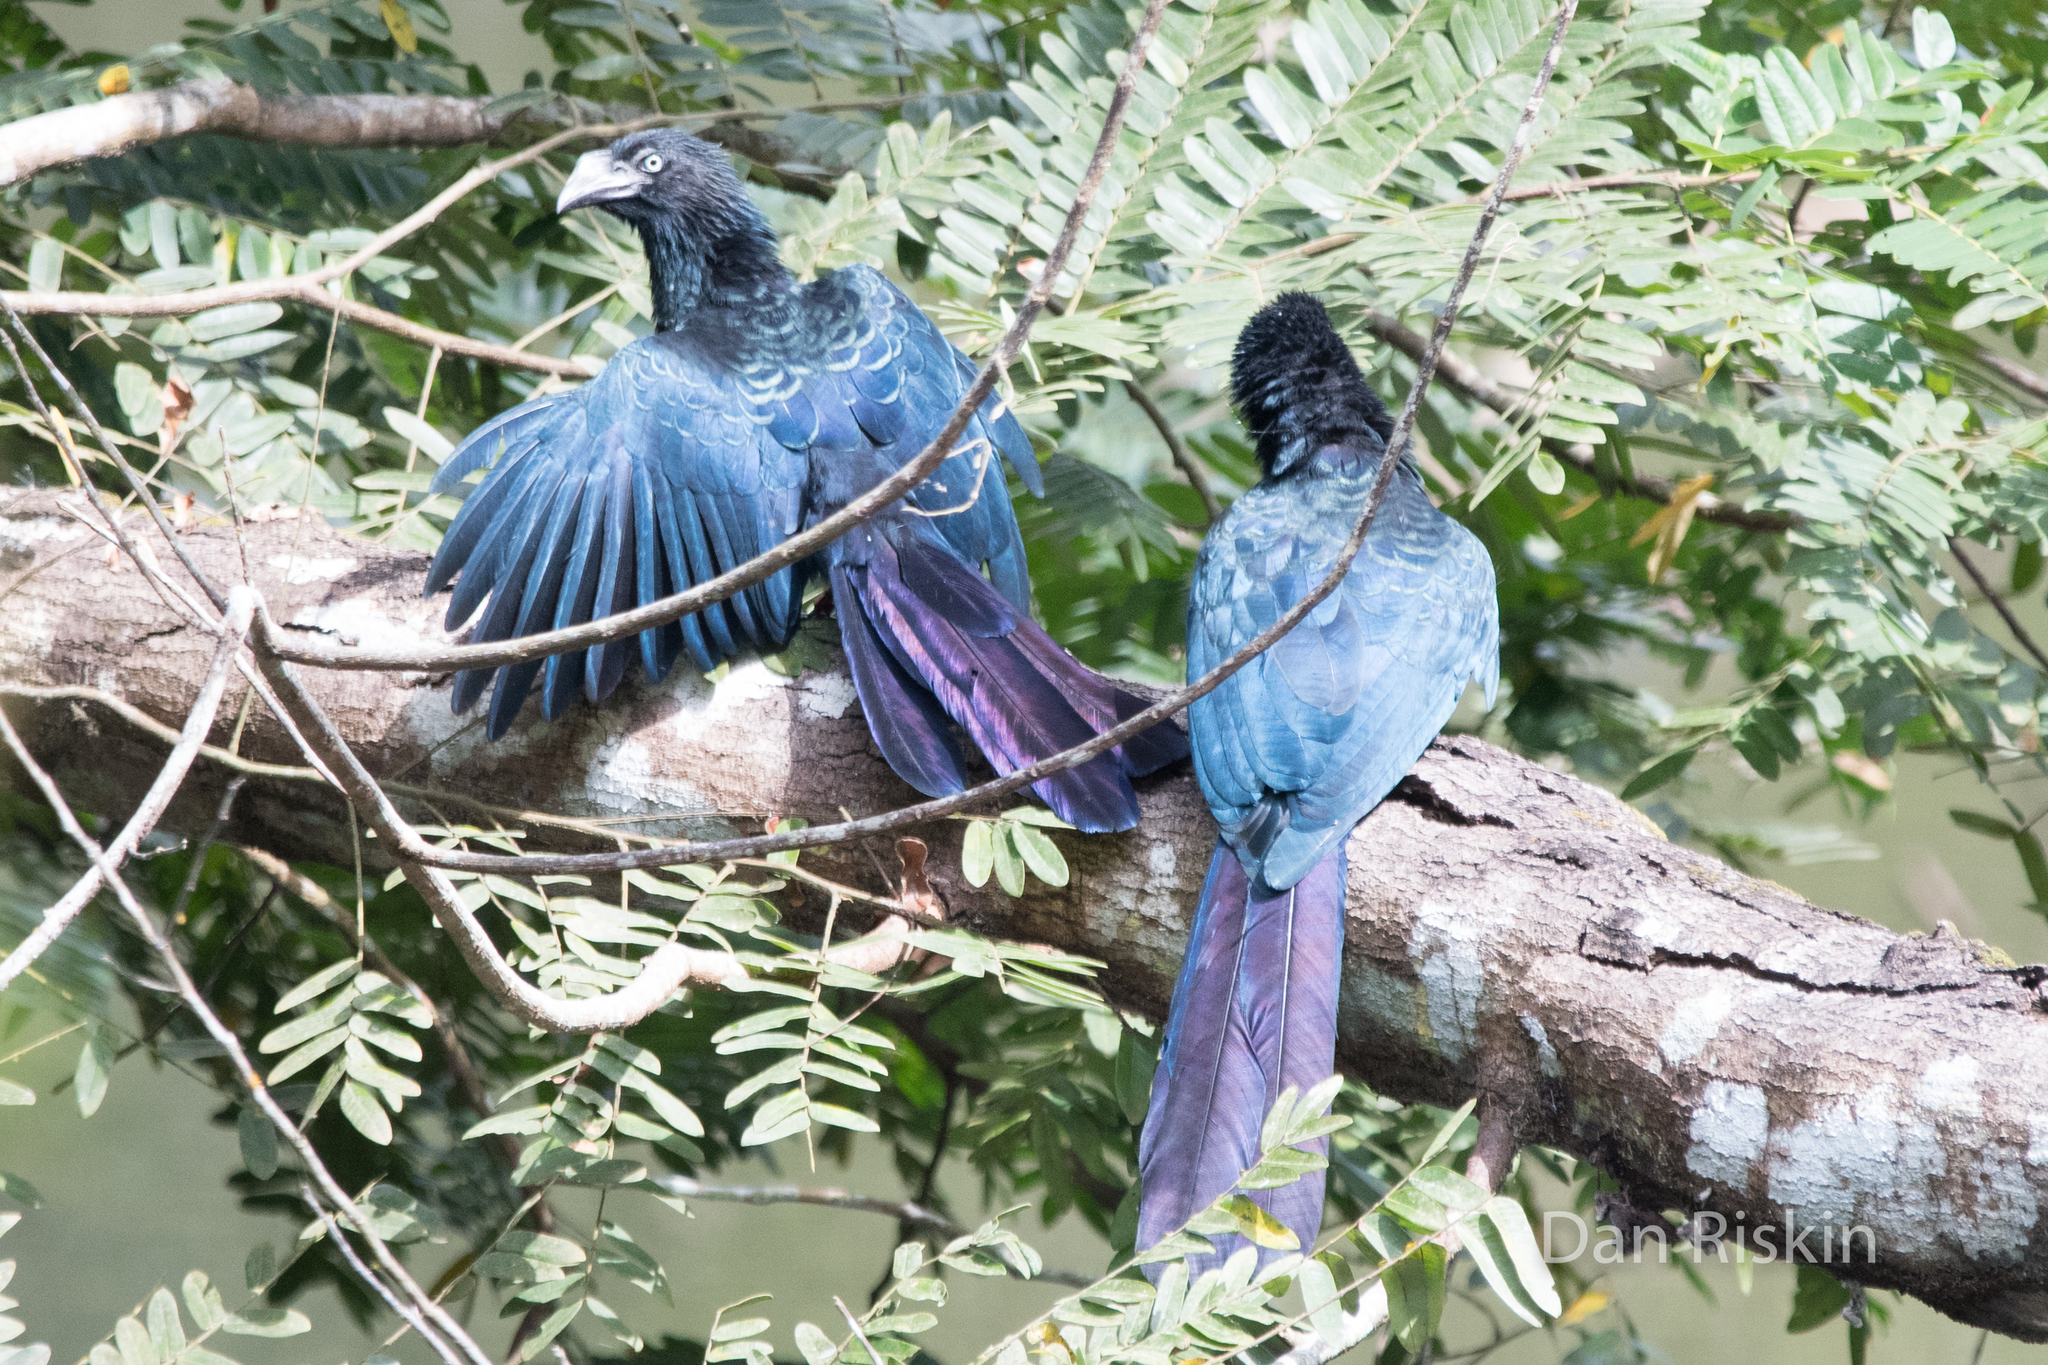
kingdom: Animalia
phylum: Chordata
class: Aves
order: Cuculiformes
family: Cuculidae
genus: Crotophaga
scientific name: Crotophaga major
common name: Greater ani
